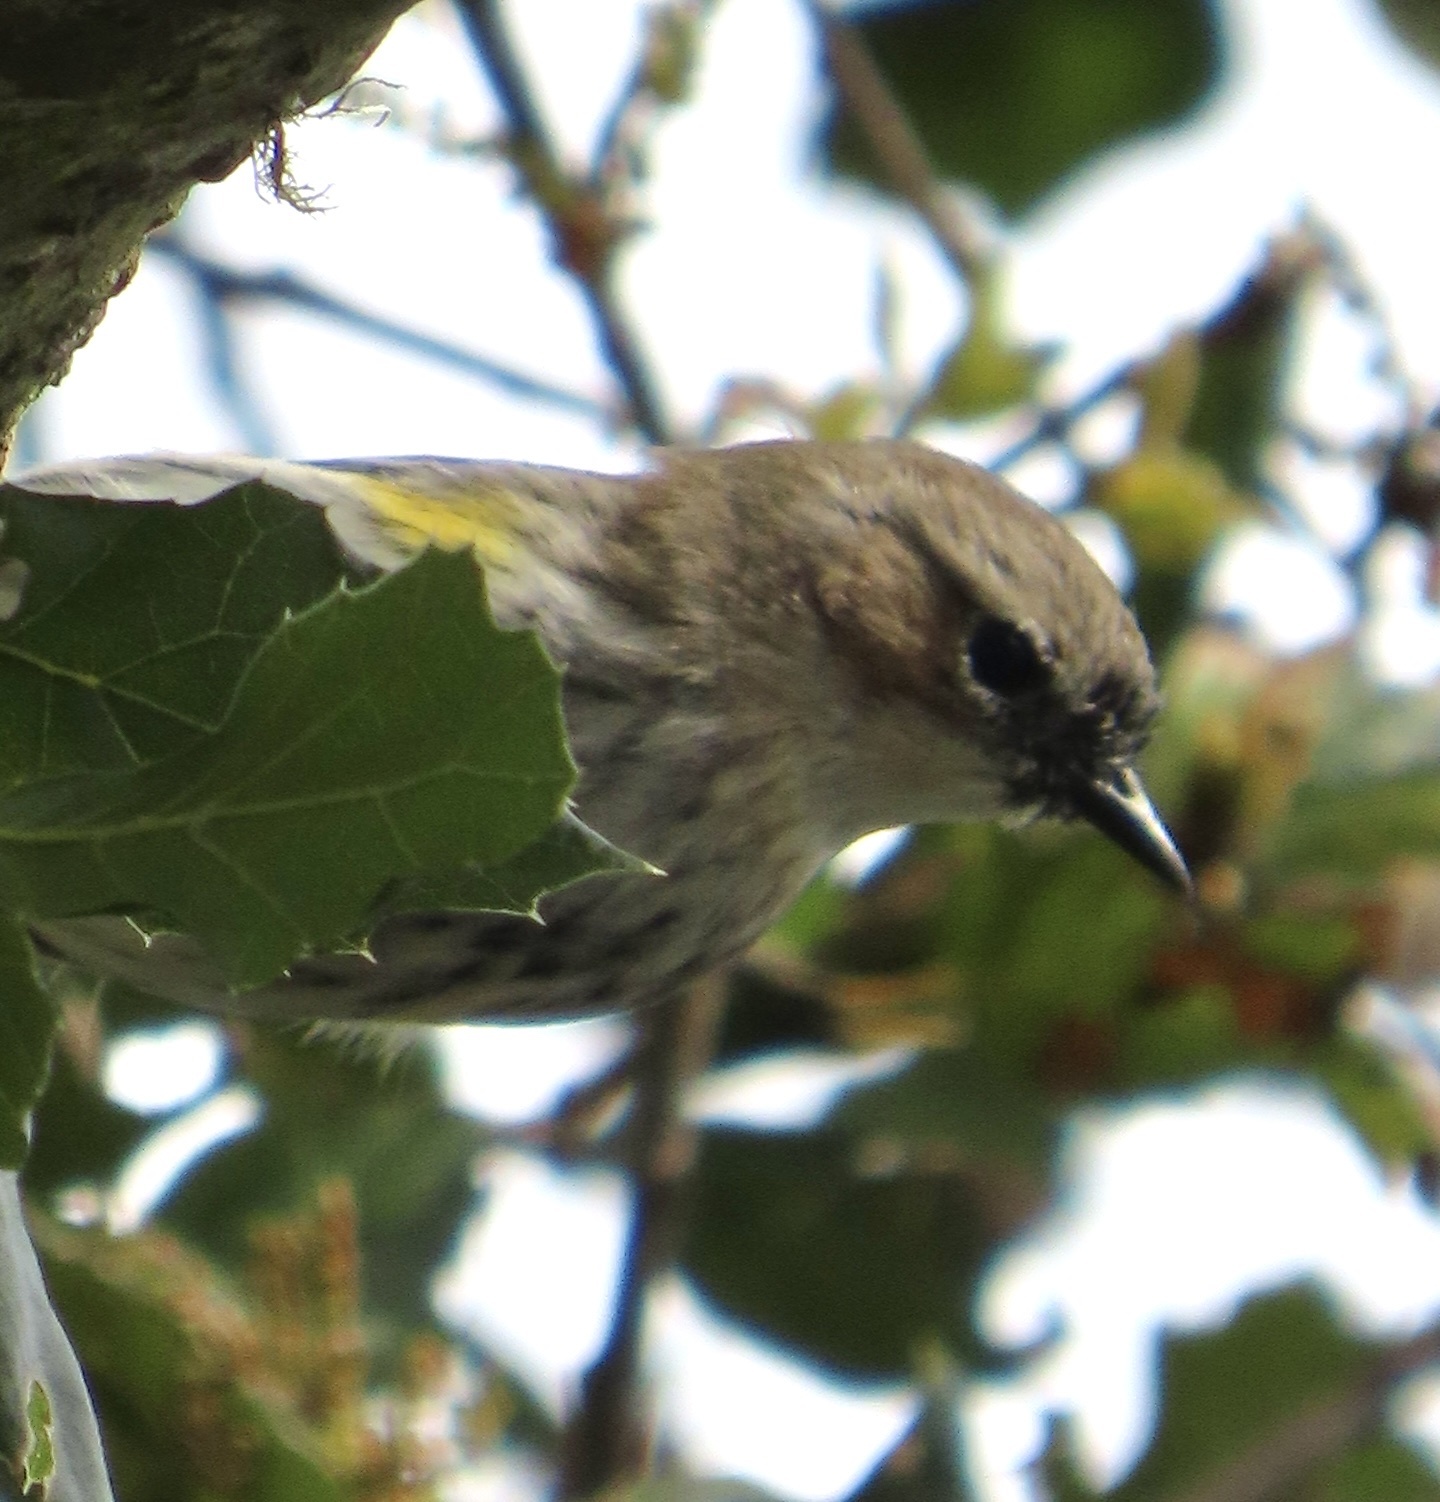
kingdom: Animalia
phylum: Chordata
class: Aves
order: Passeriformes
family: Parulidae
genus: Setophaga
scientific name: Setophaga coronata
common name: Myrtle warbler
